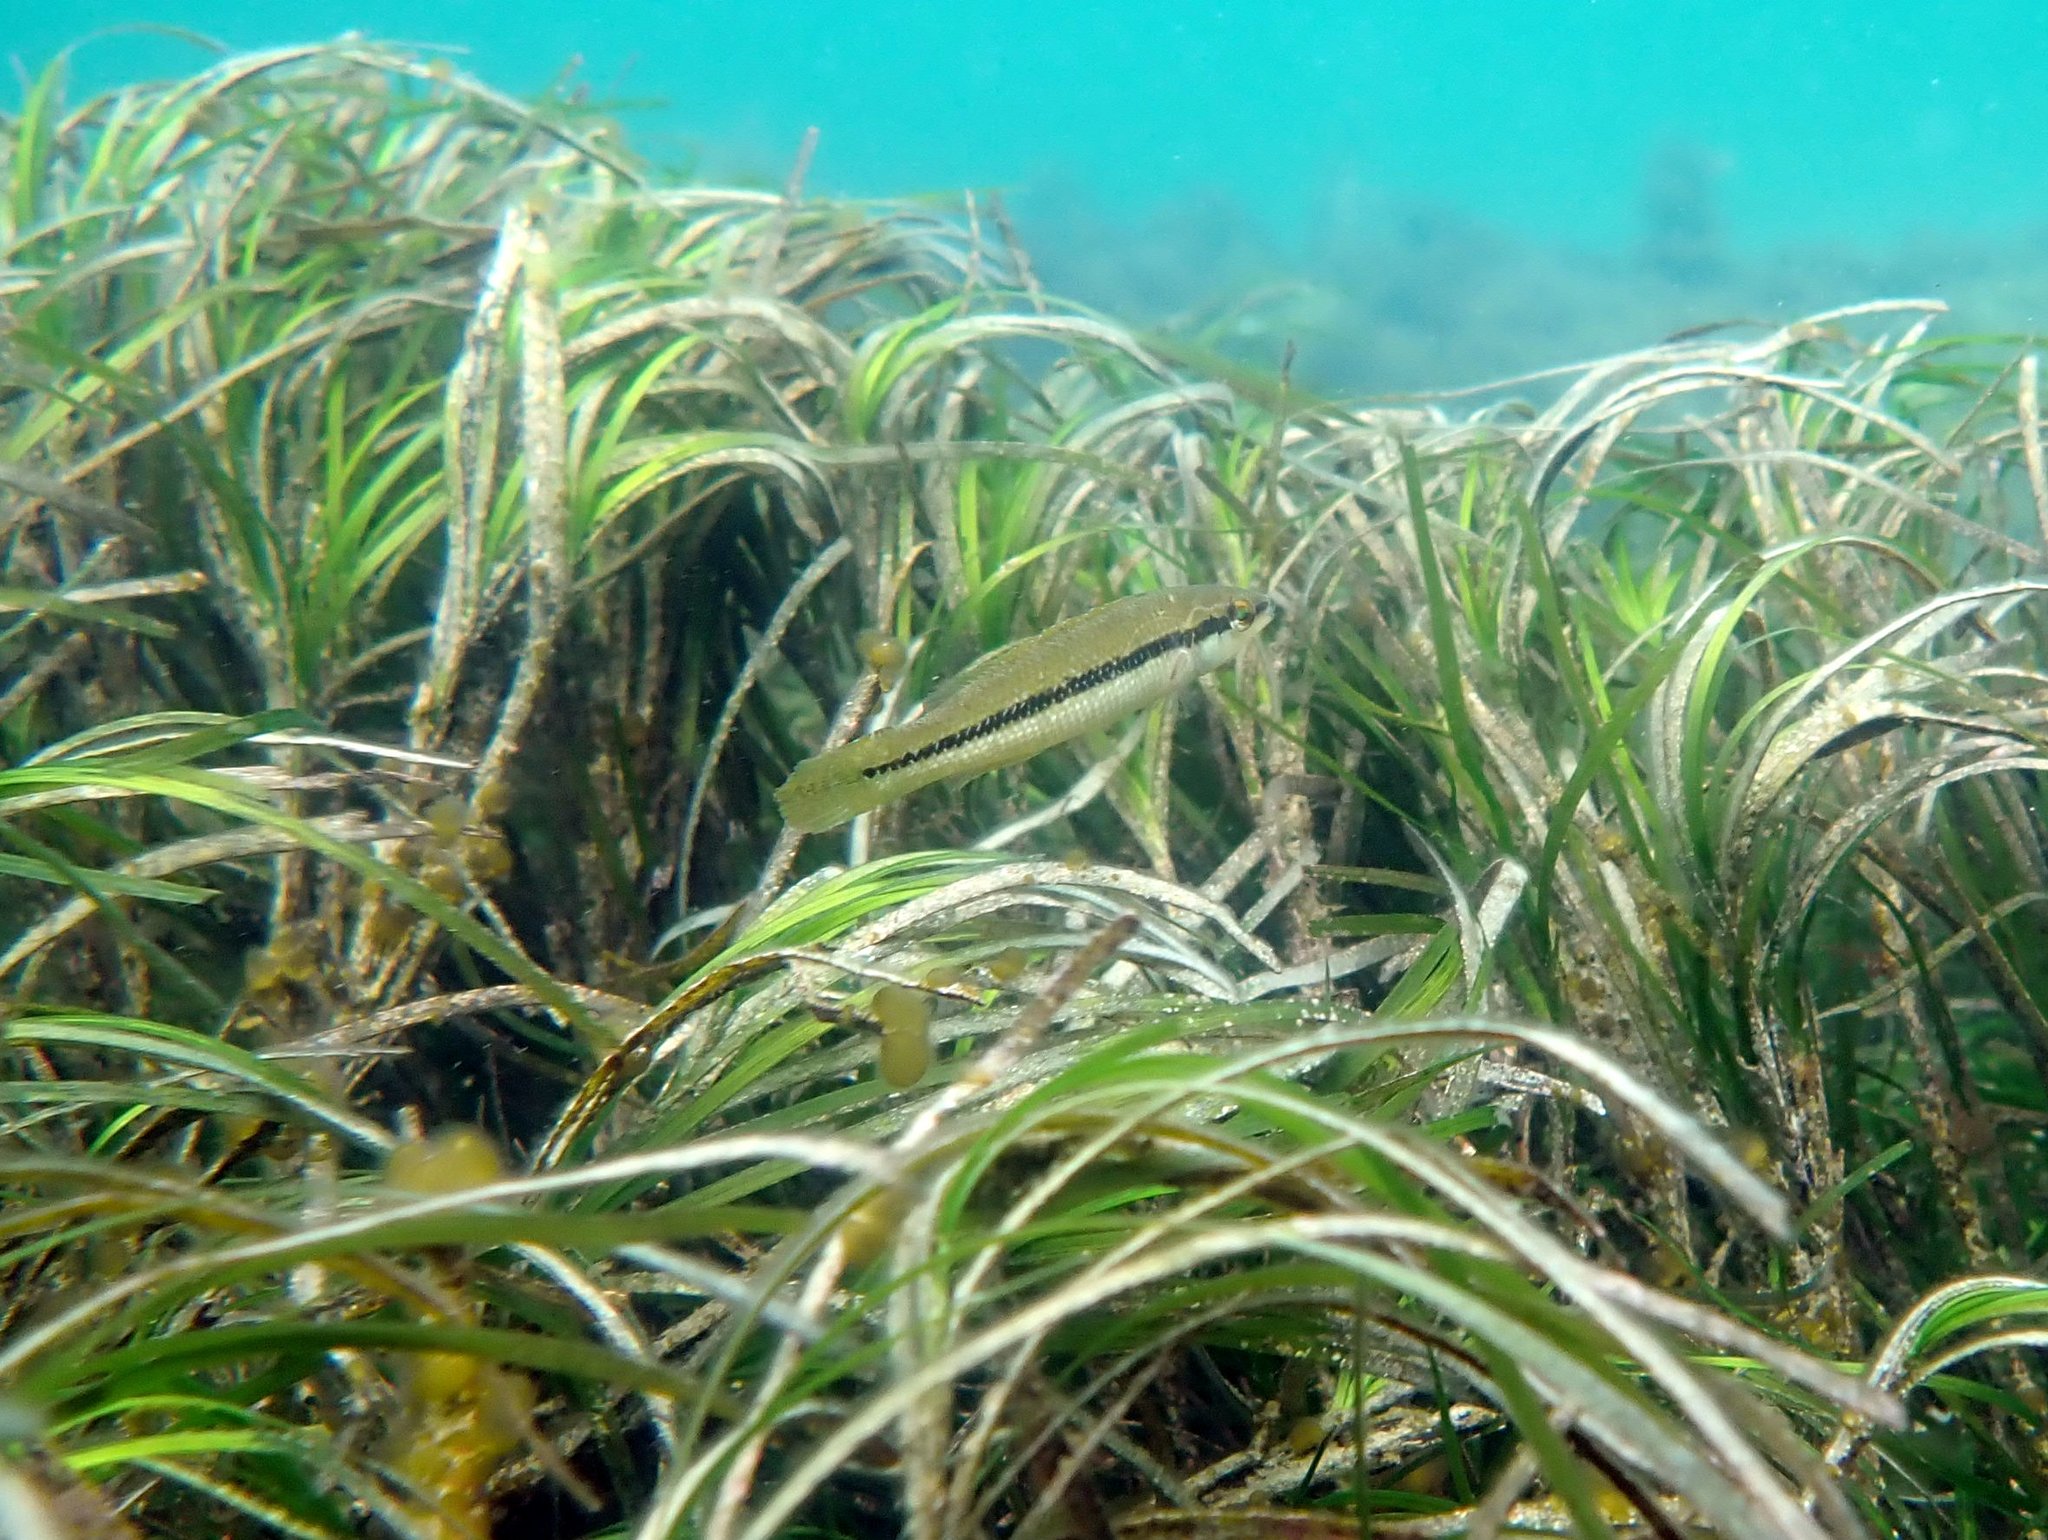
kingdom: Animalia
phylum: Chordata
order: Perciformes
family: Odacidae
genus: Neoodax
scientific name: Neoodax balteatus
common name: Ground mullet
